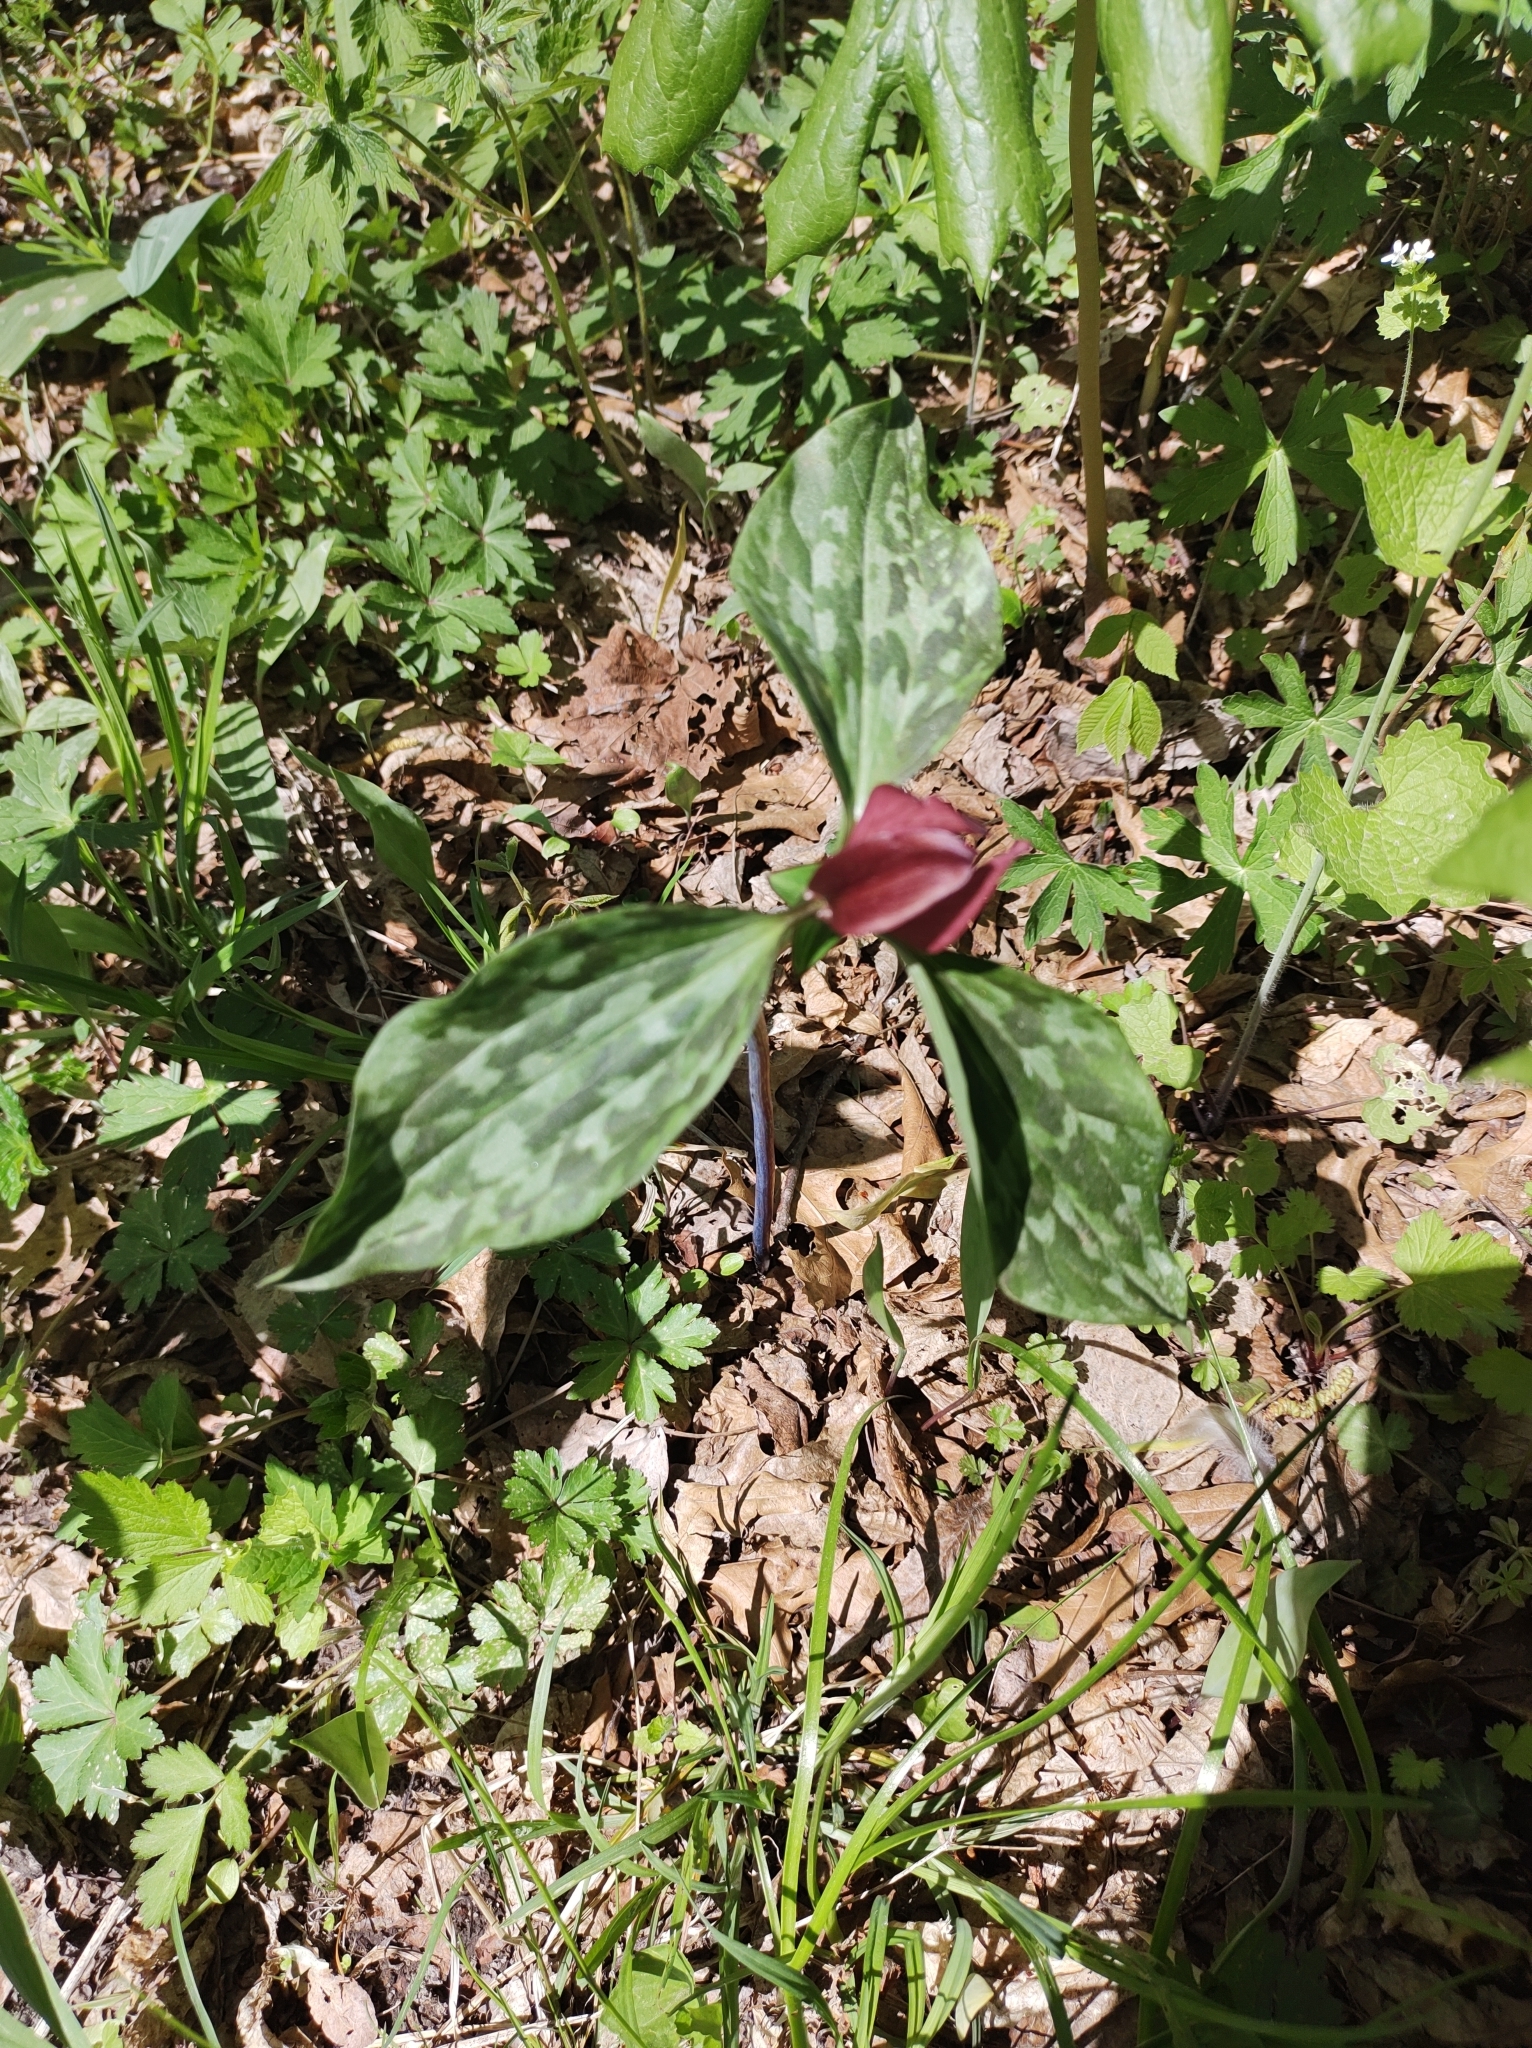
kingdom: Plantae
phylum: Tracheophyta
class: Liliopsida
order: Liliales
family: Melanthiaceae
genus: Trillium
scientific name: Trillium recurvatum
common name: Bloody butcher
